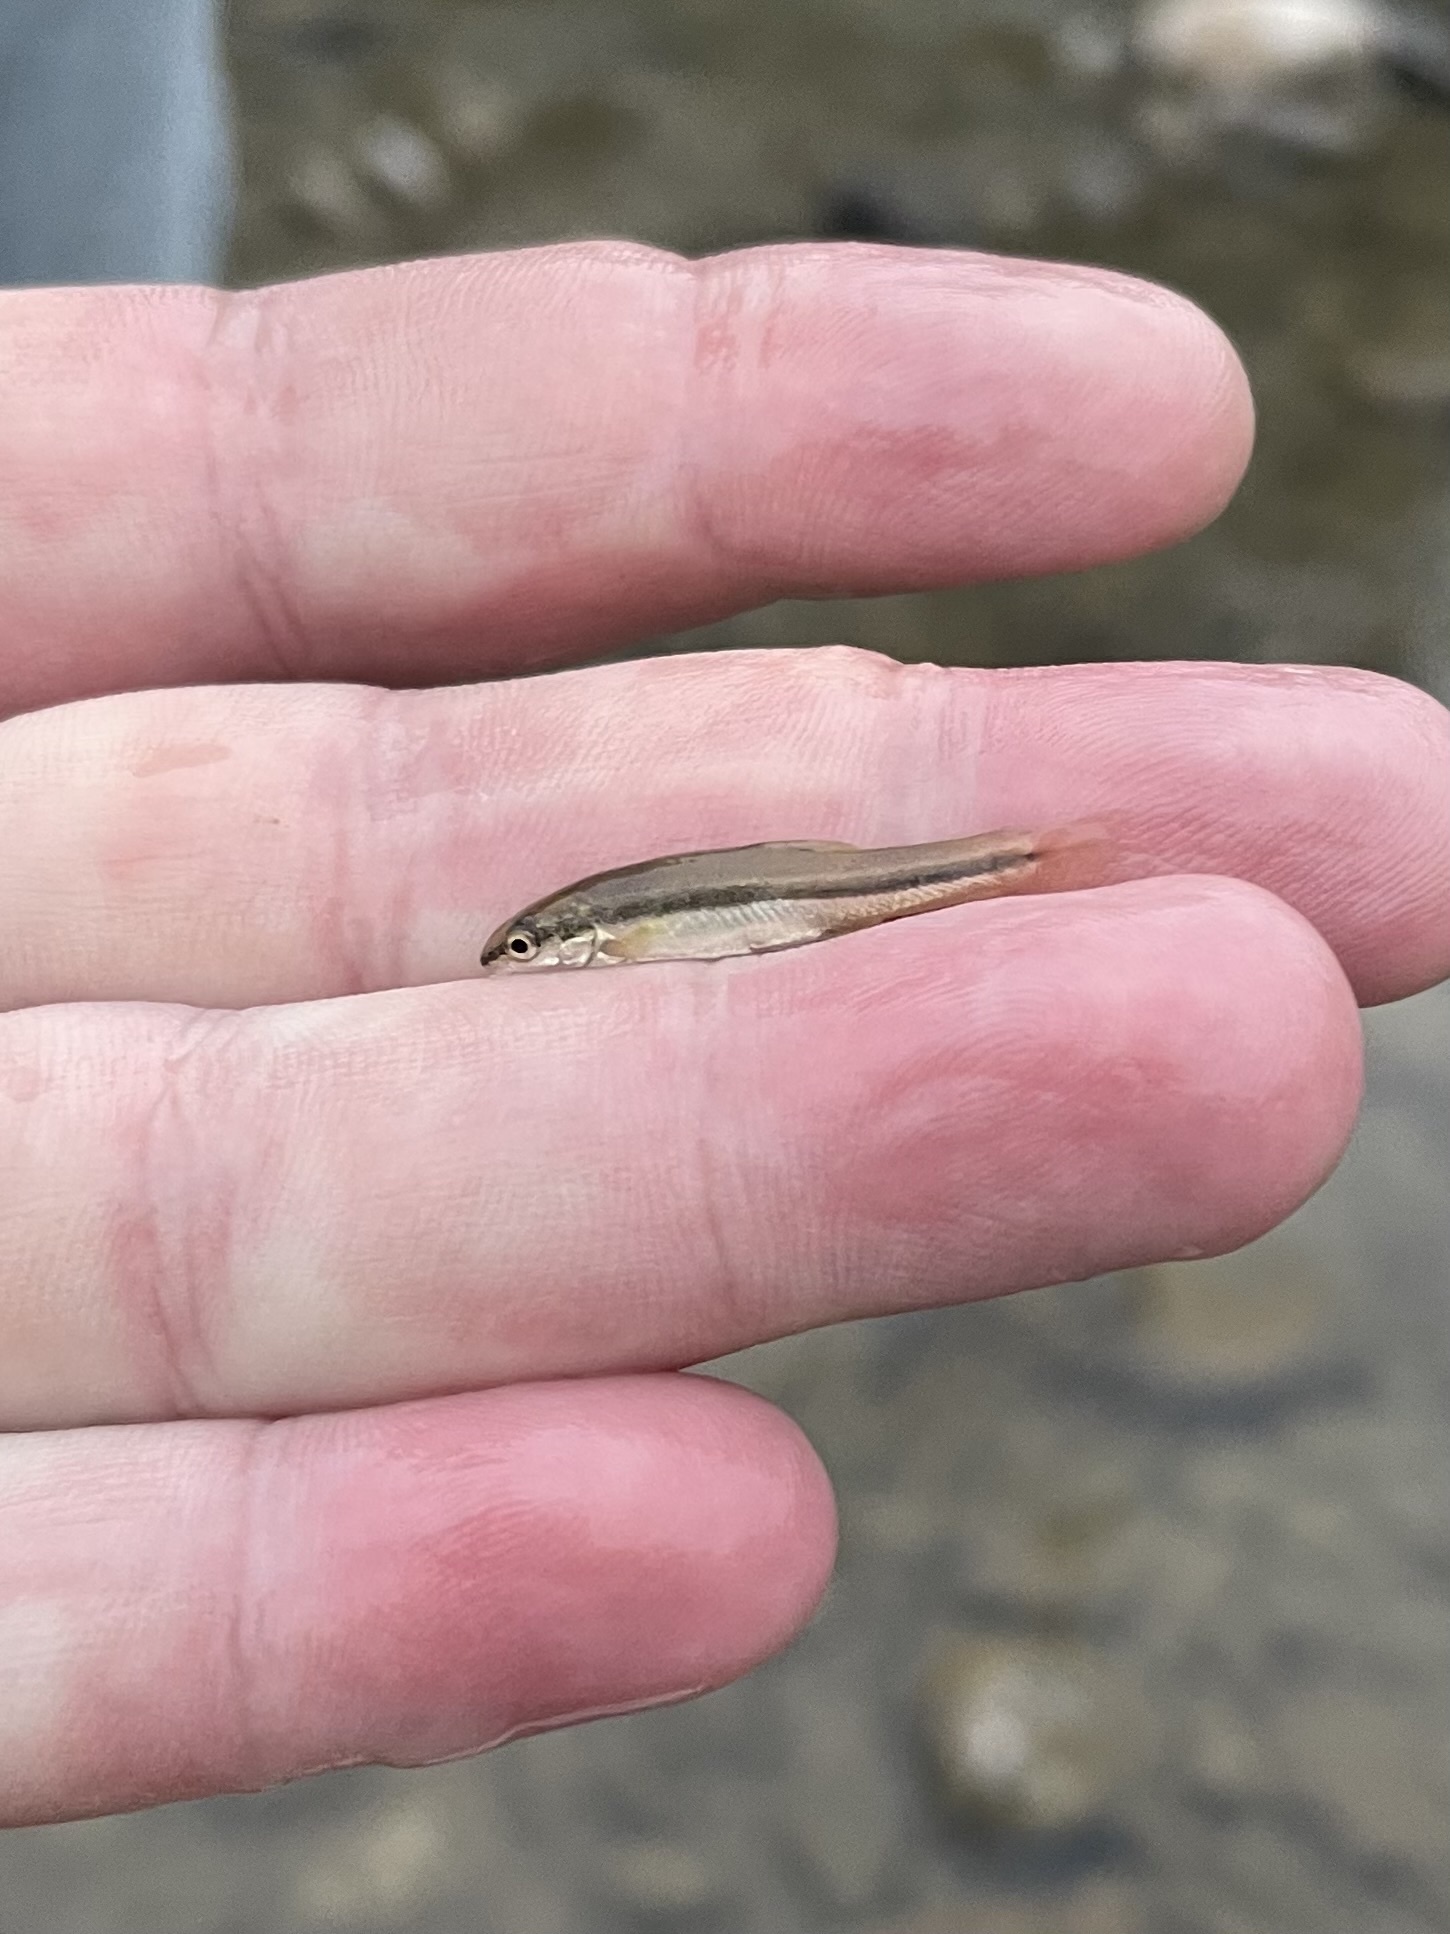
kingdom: Animalia
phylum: Chordata
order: Cypriniformes
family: Cyprinidae
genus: Rhinichthys
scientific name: Rhinichthys atratulus
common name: Eastern blacknose dace
